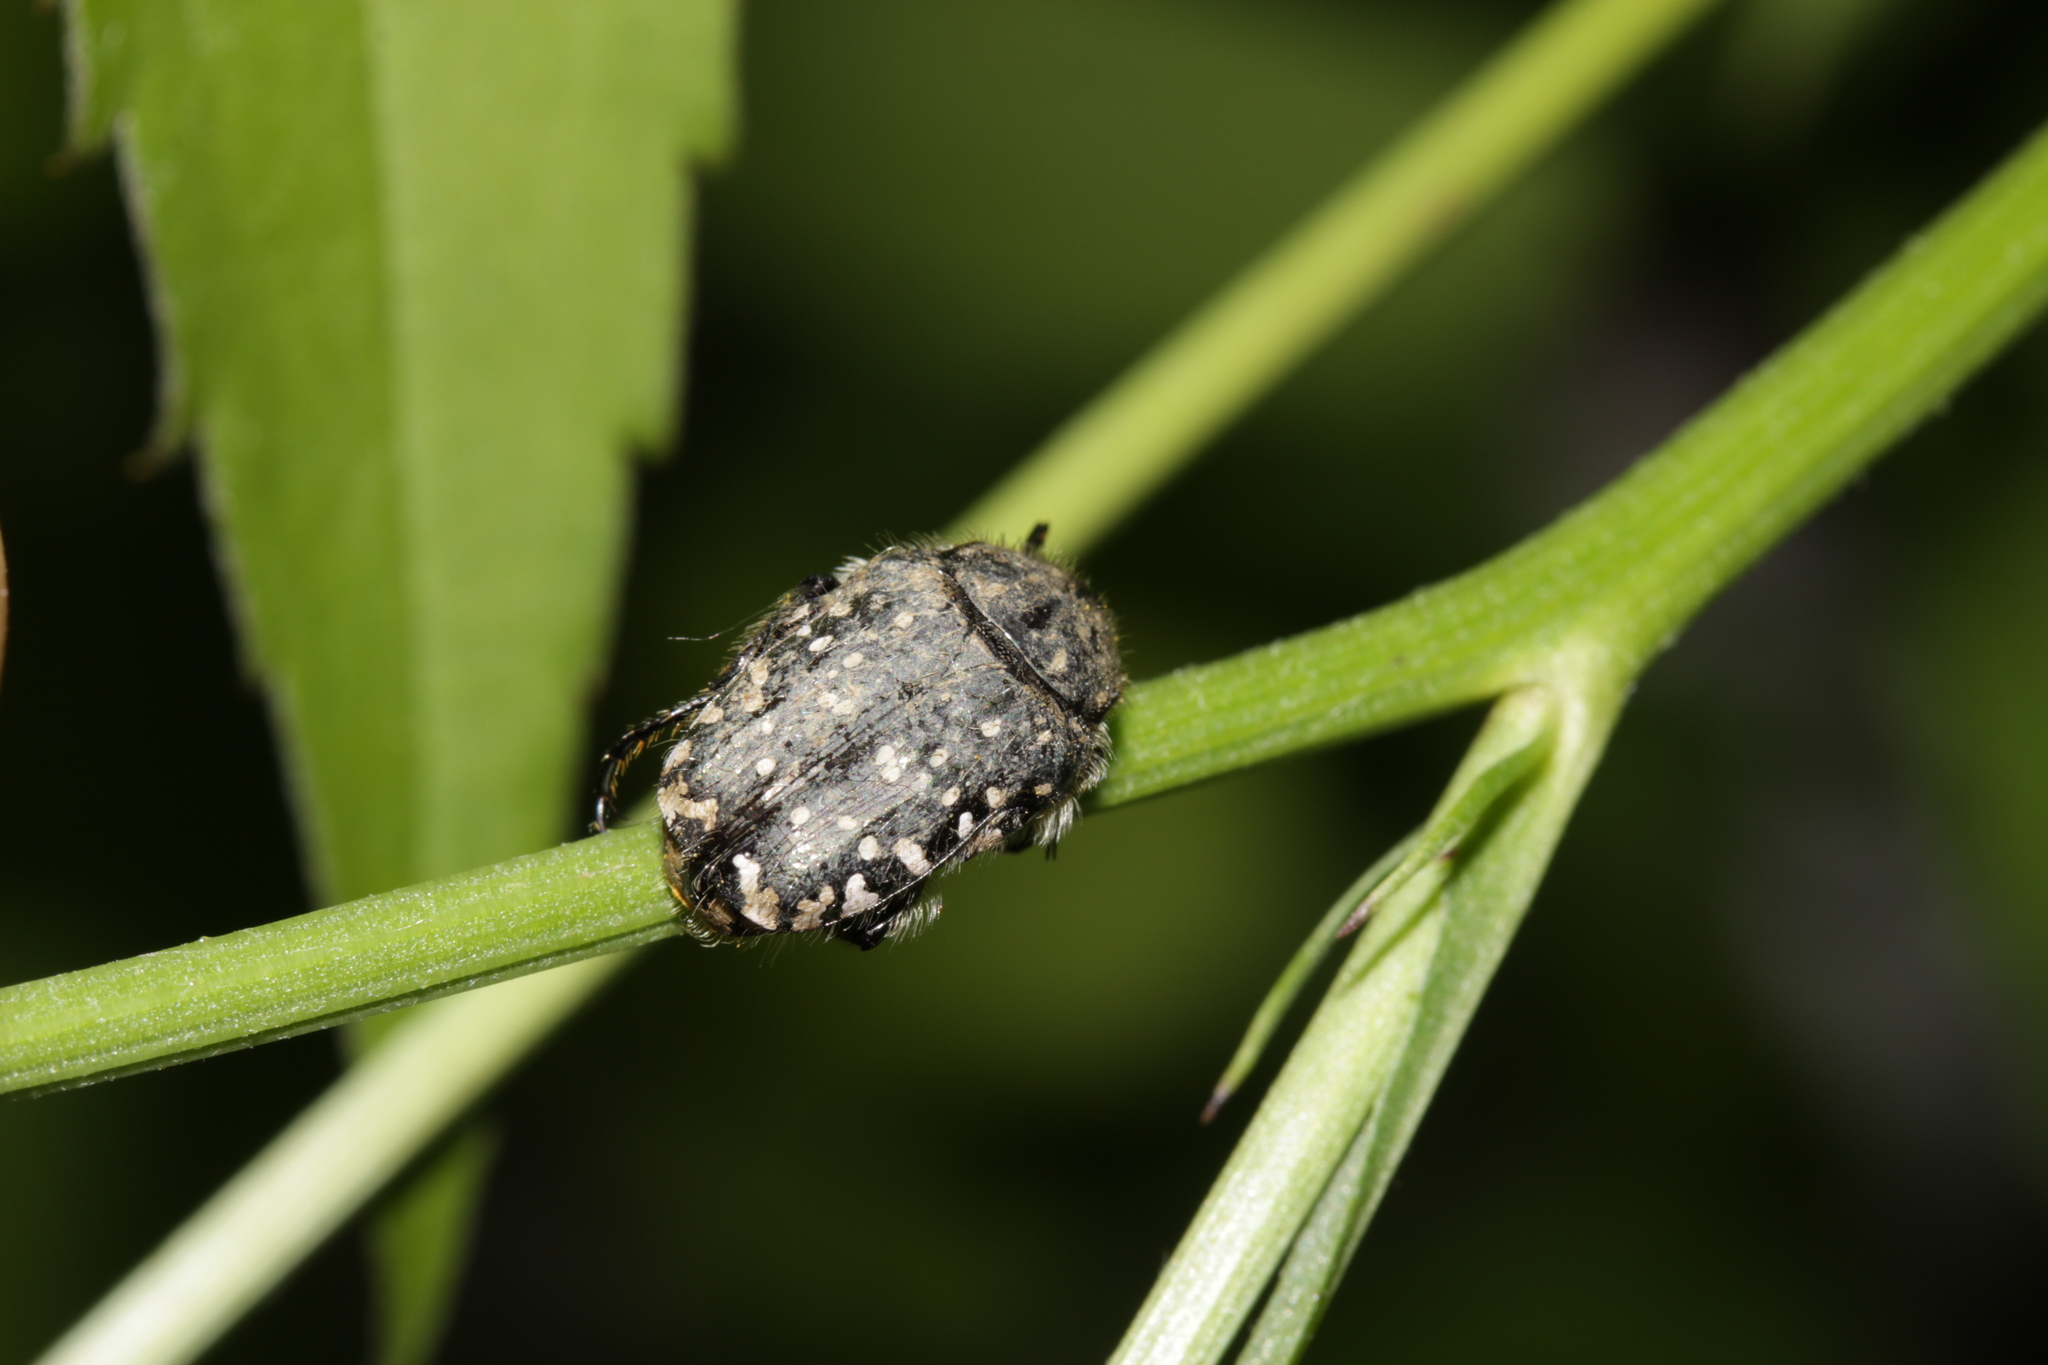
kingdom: Animalia
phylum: Arthropoda
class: Insecta
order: Coleoptera
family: Scarabaeidae
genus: Oxythyrea
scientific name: Oxythyrea funesta
